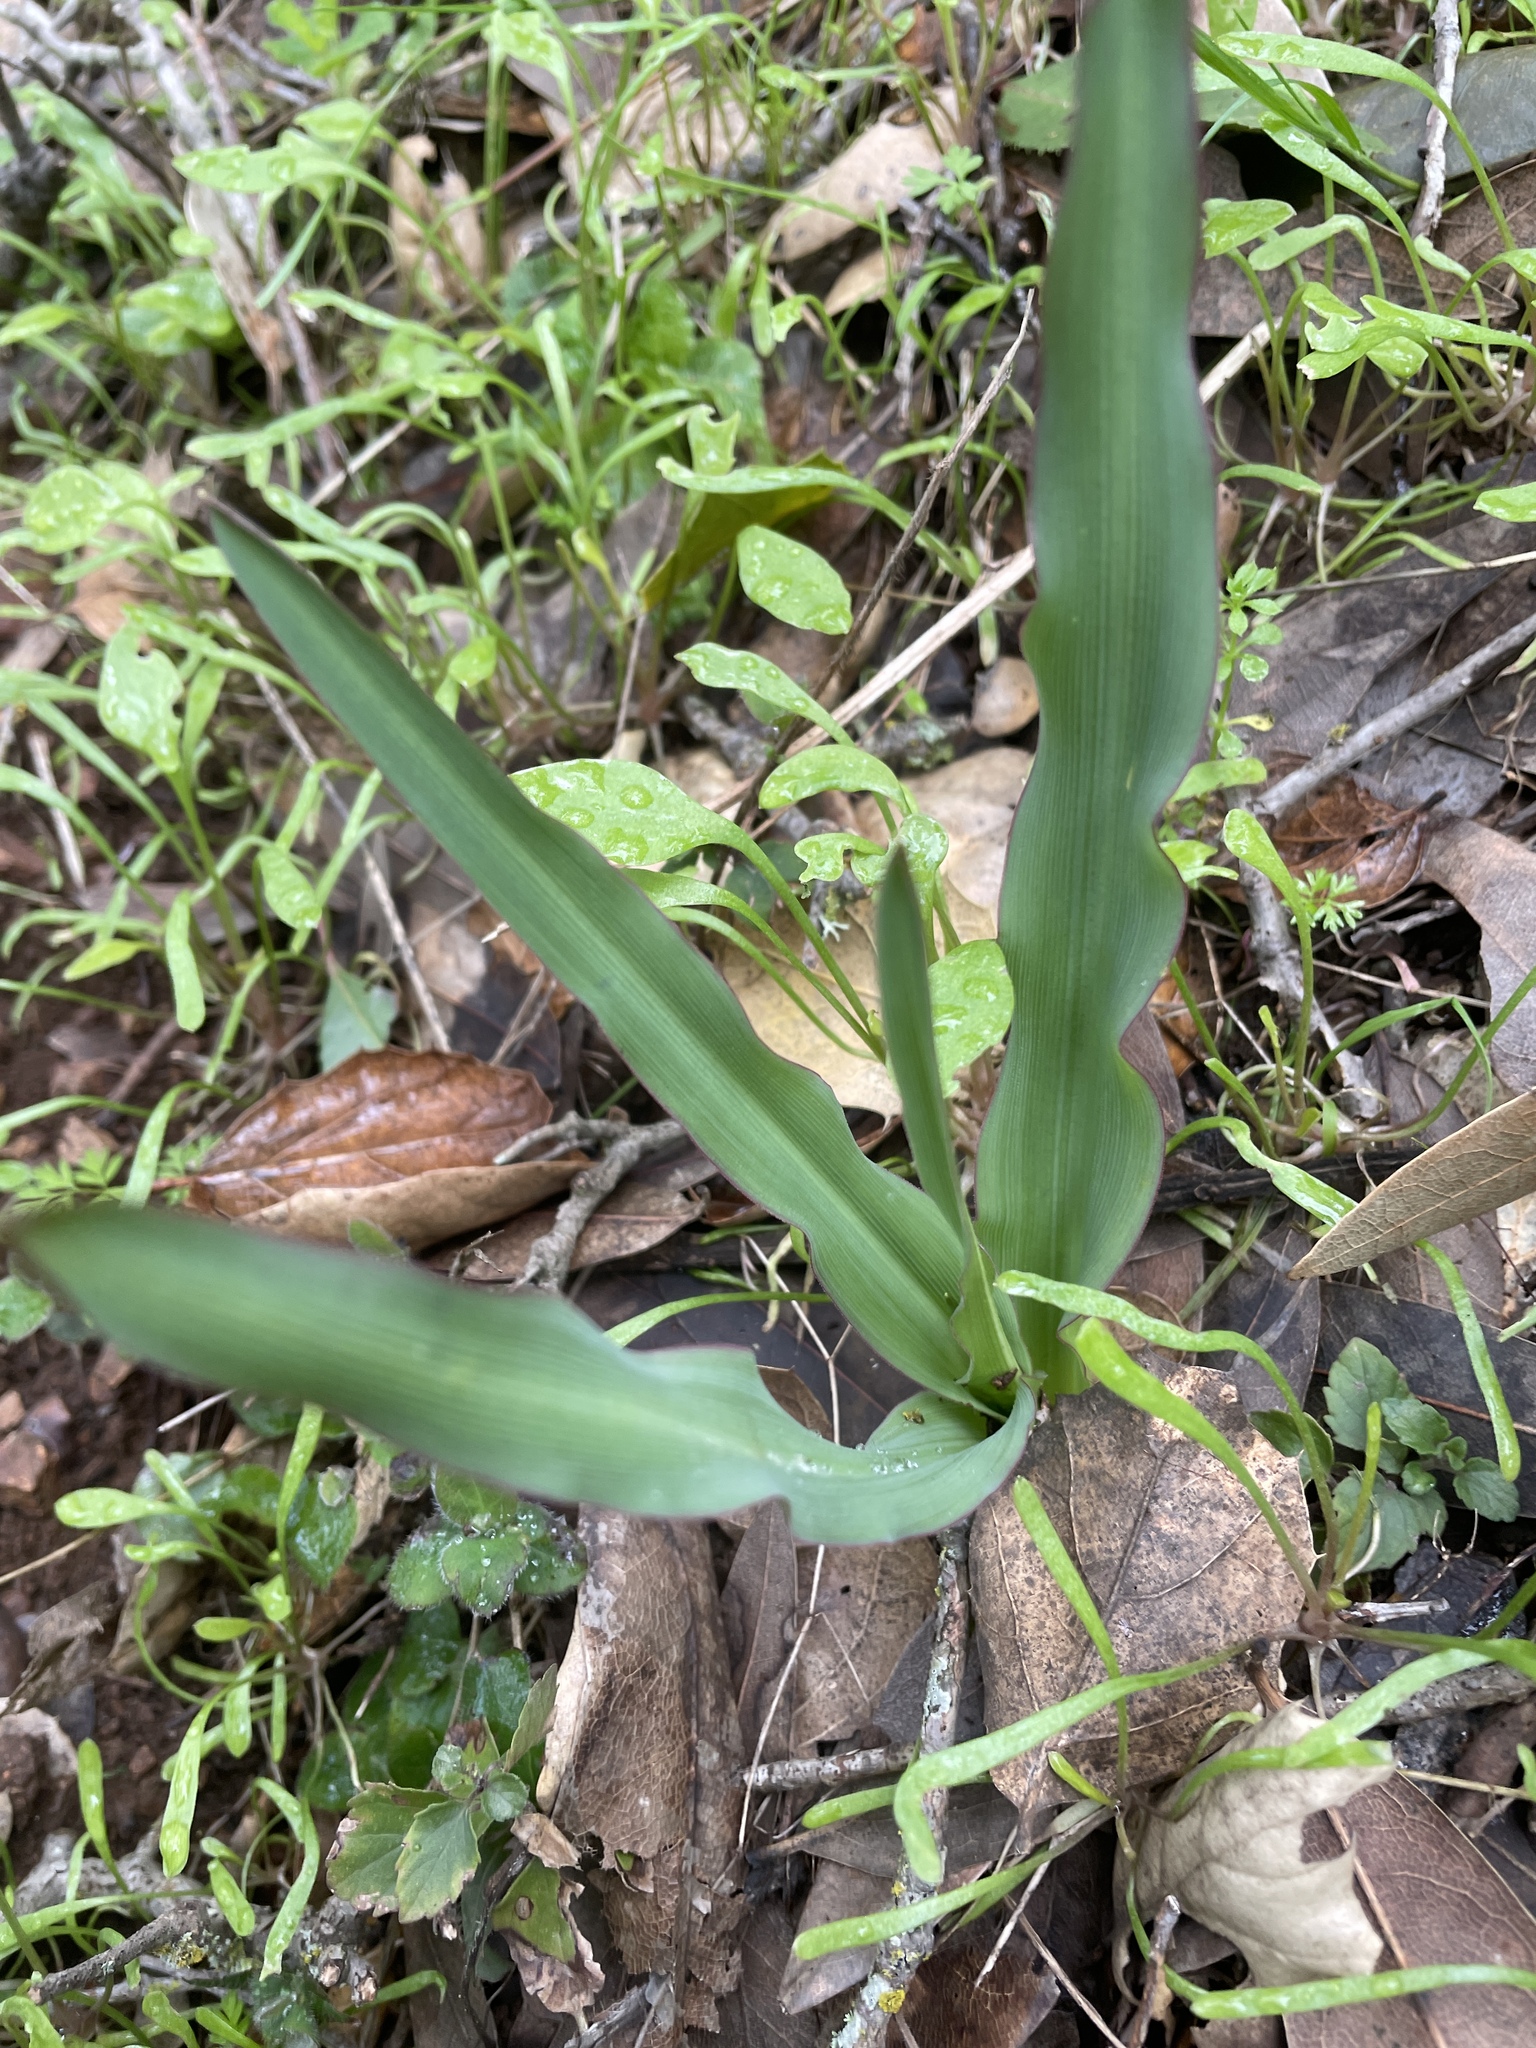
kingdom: Plantae
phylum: Tracheophyta
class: Liliopsida
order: Asparagales
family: Asparagaceae
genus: Chlorogalum
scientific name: Chlorogalum pomeridianum
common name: Amole
